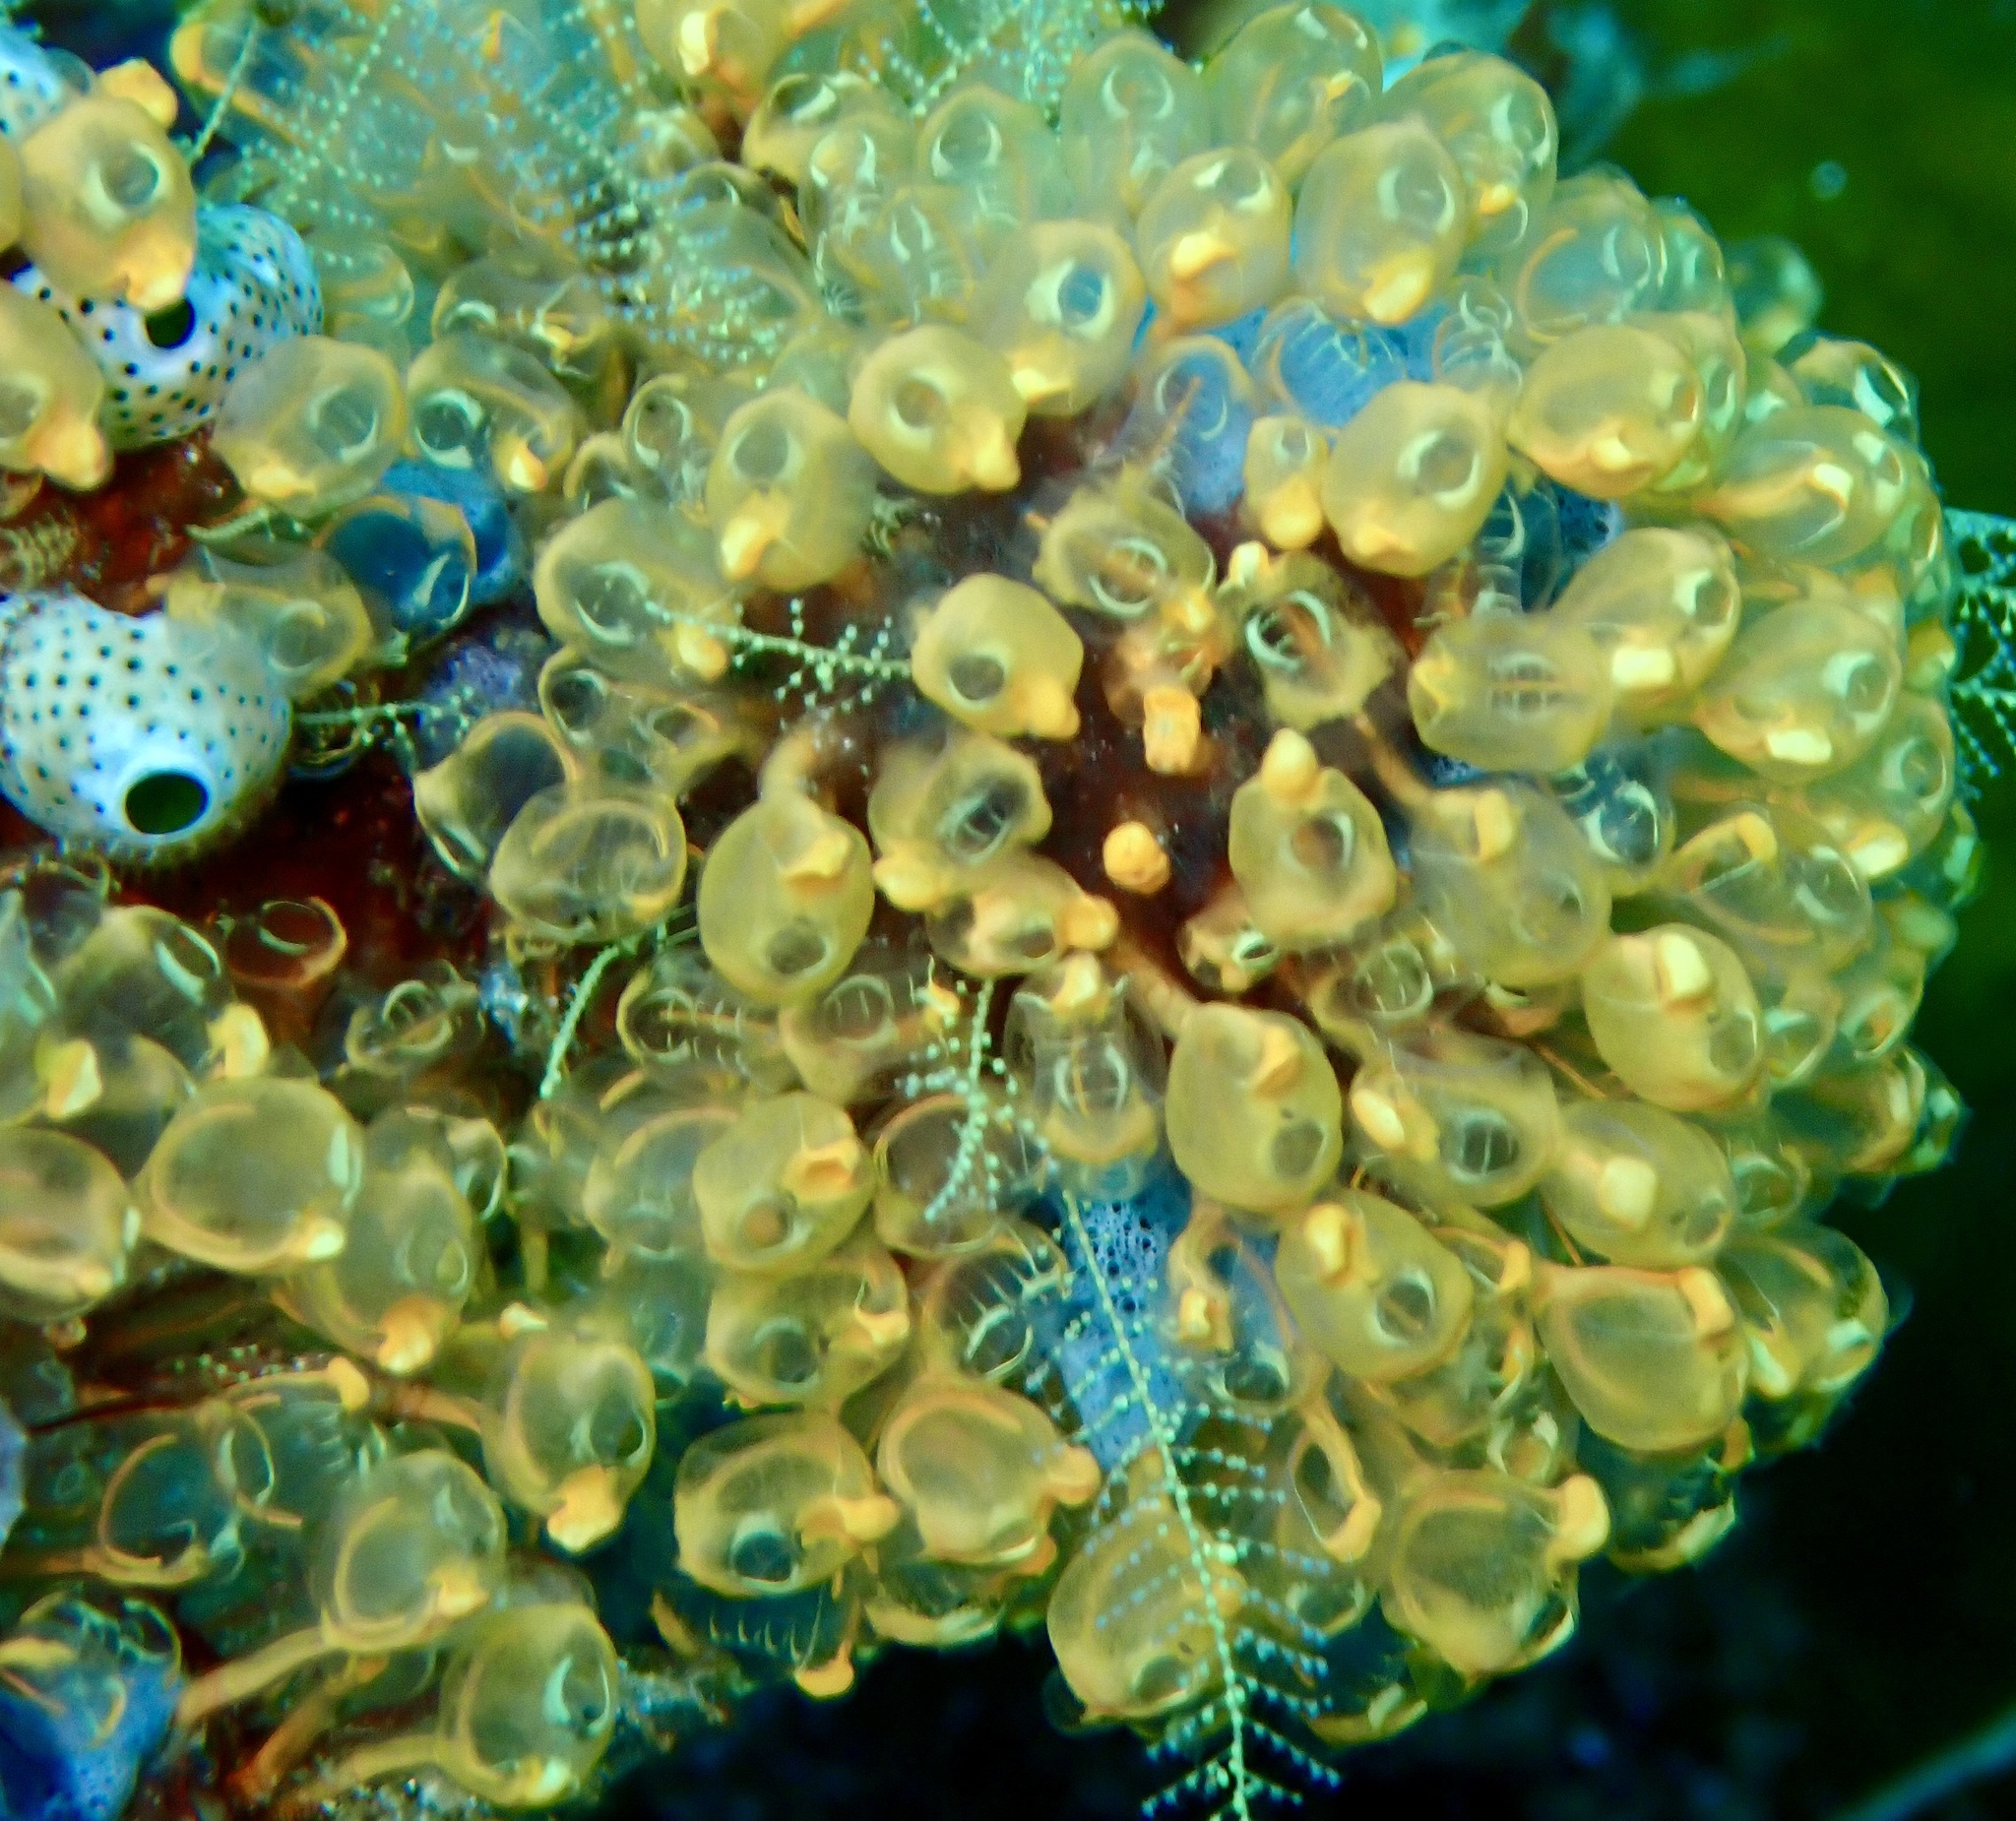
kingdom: Animalia
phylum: Chordata
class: Ascidiacea
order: Aplousobranchia
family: Clavelinidae
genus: Pycnoclavella
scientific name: Pycnoclavella detorta
